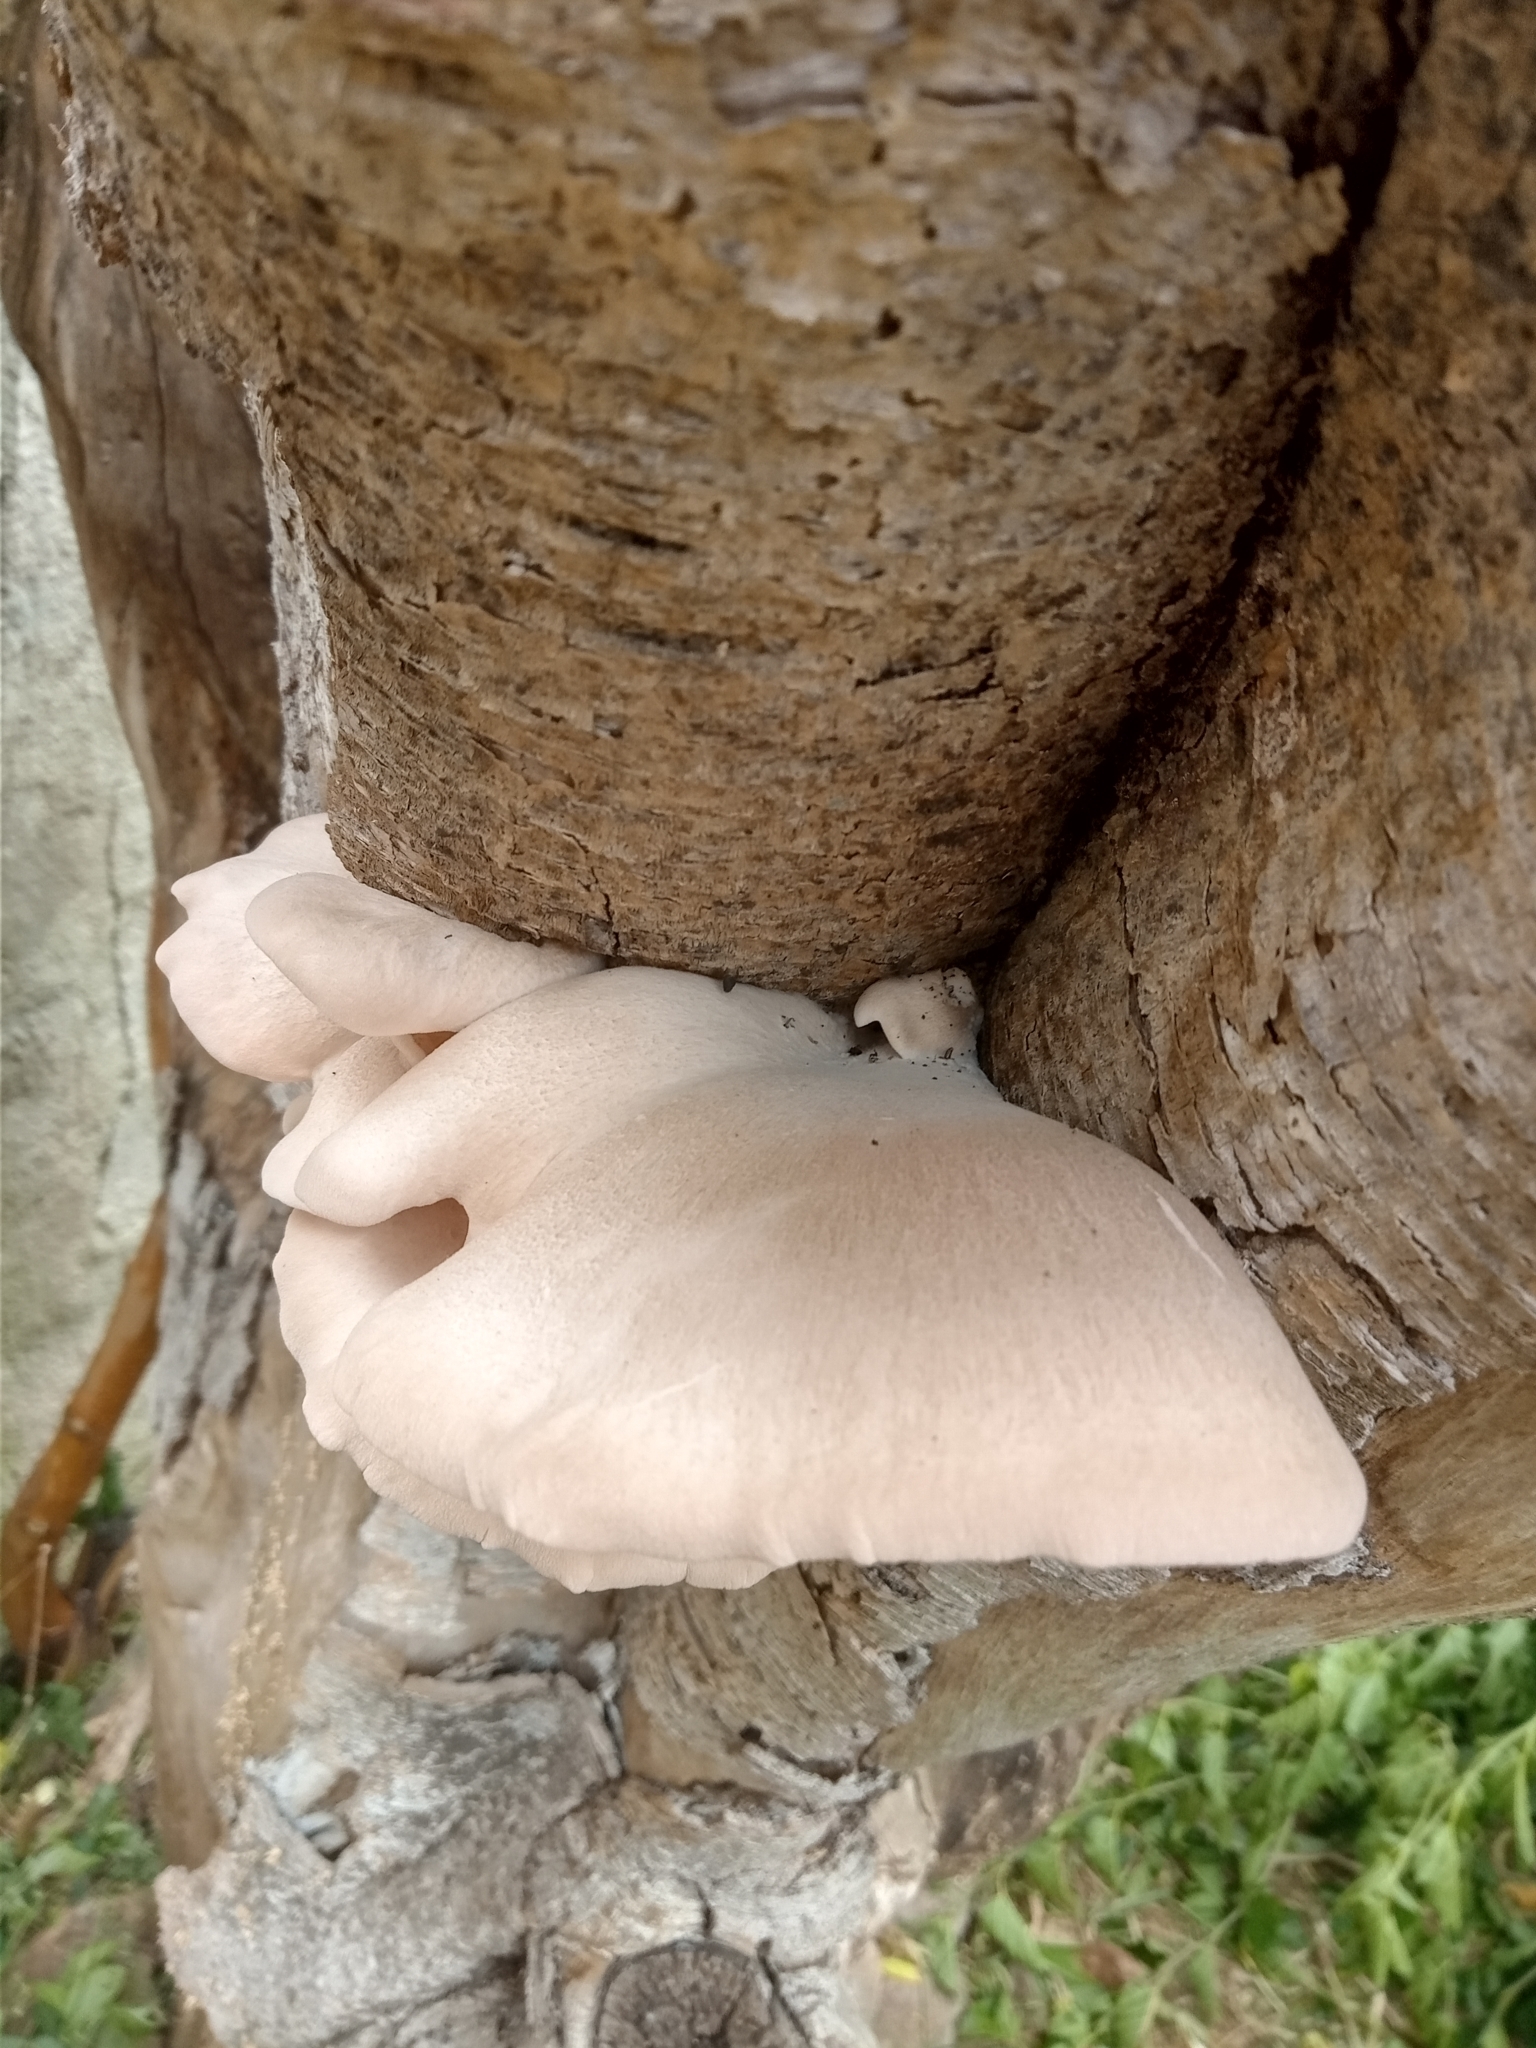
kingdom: Fungi
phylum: Basidiomycota
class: Agaricomycetes
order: Agaricales
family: Pleurotaceae
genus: Pleurotus
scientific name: Pleurotus djamor
